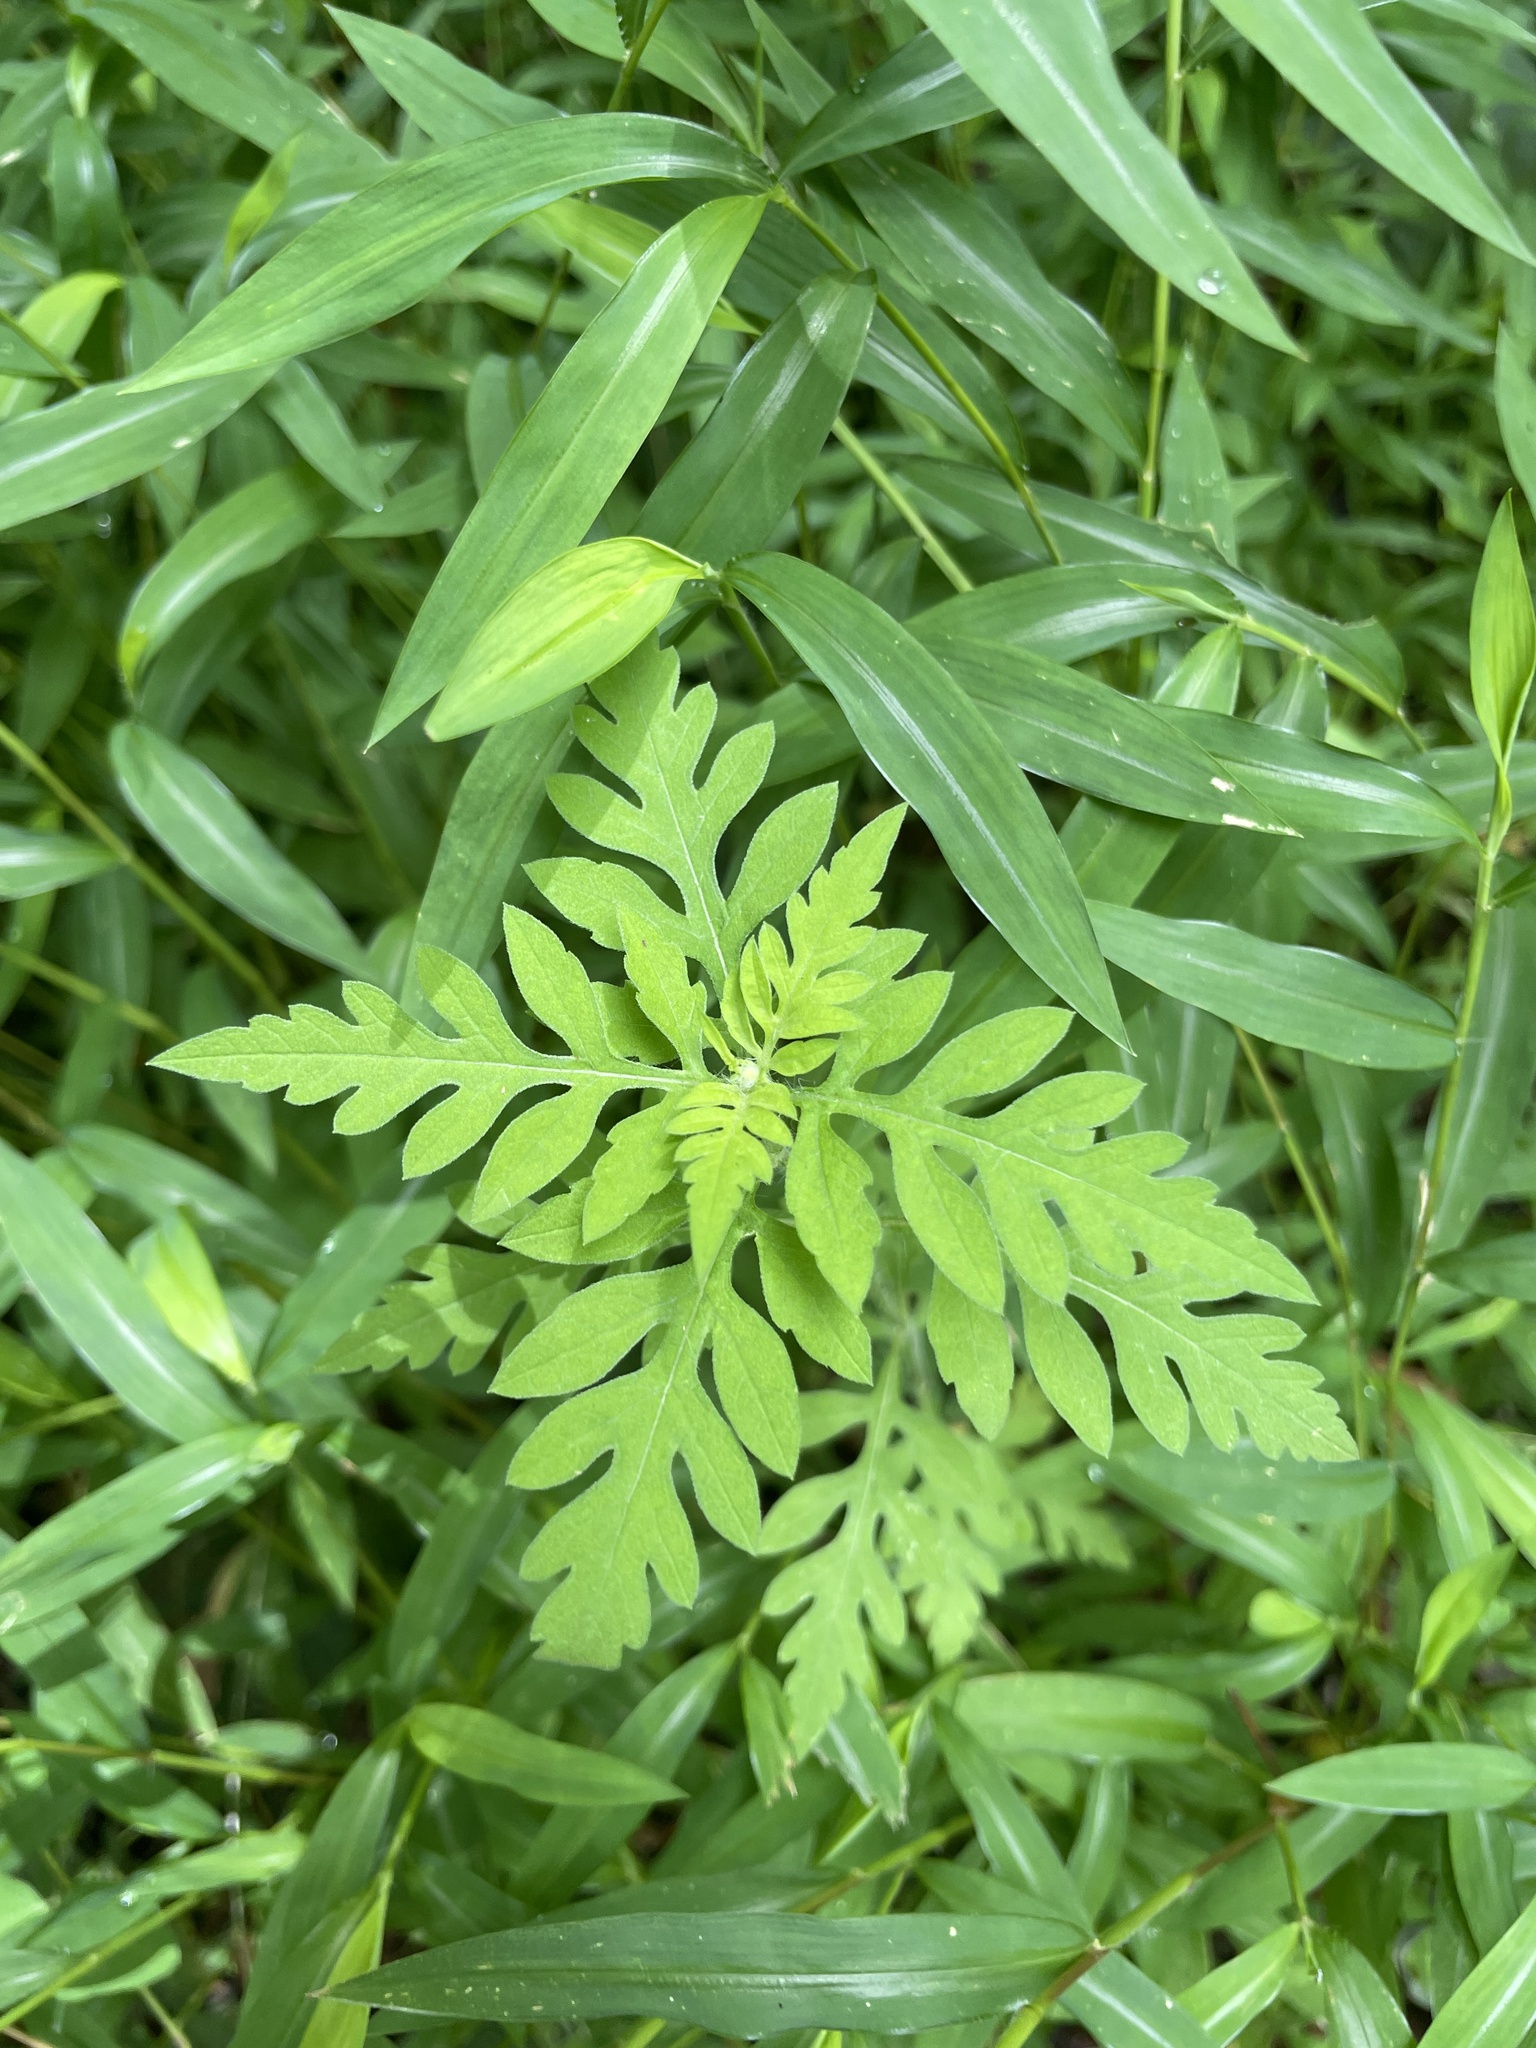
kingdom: Plantae
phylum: Tracheophyta
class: Magnoliopsida
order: Asterales
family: Asteraceae
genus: Ambrosia
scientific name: Ambrosia artemisiifolia
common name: Annual ragweed
